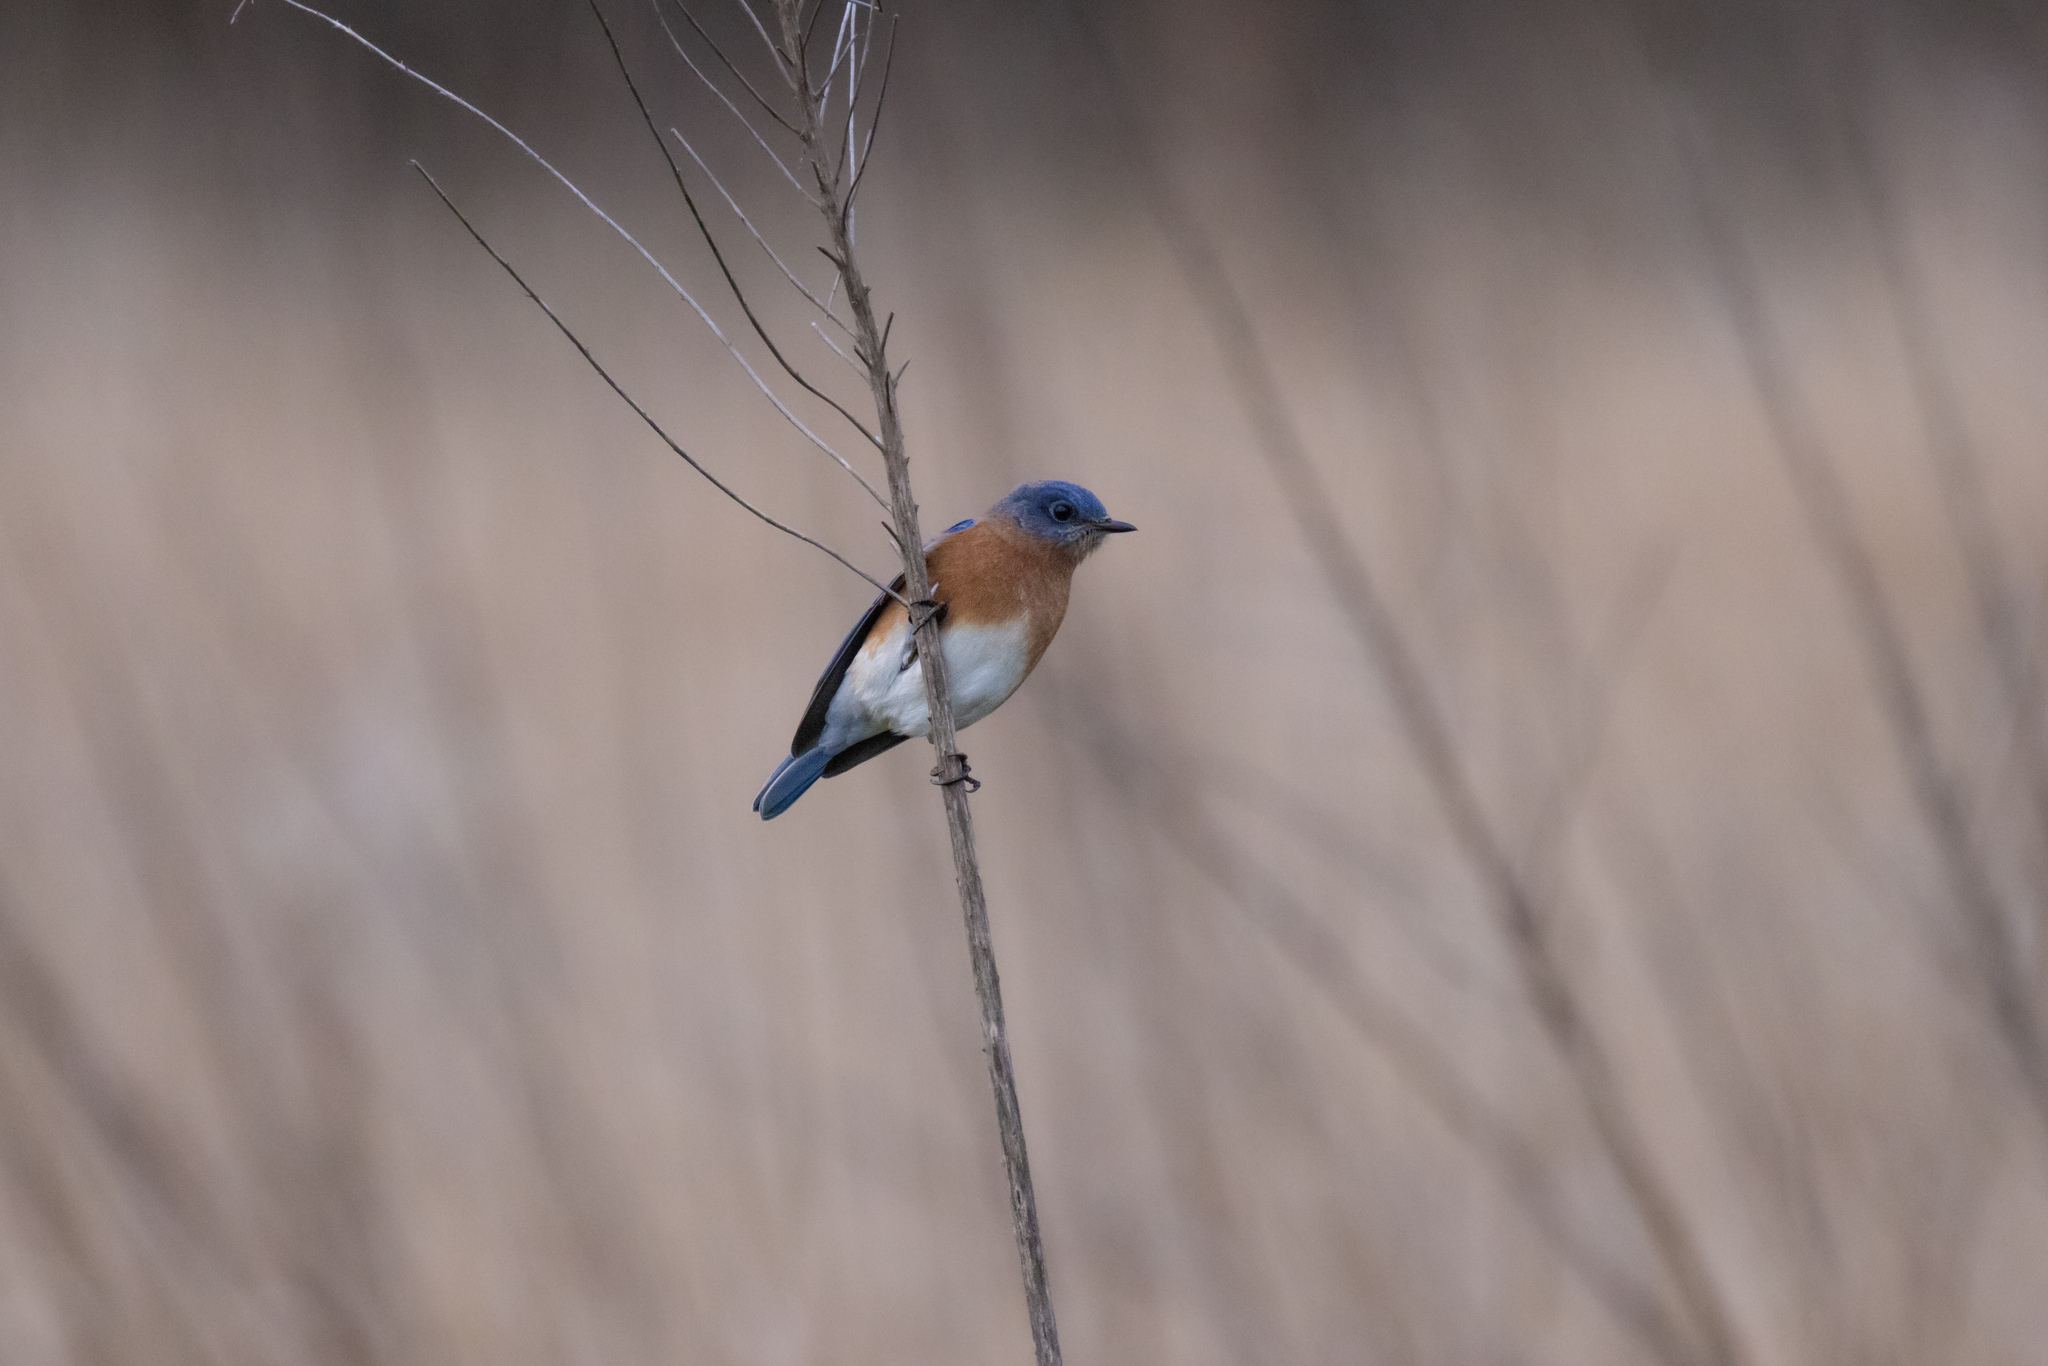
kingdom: Animalia
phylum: Chordata
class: Aves
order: Passeriformes
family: Turdidae
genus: Sialia
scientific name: Sialia sialis
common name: Eastern bluebird
